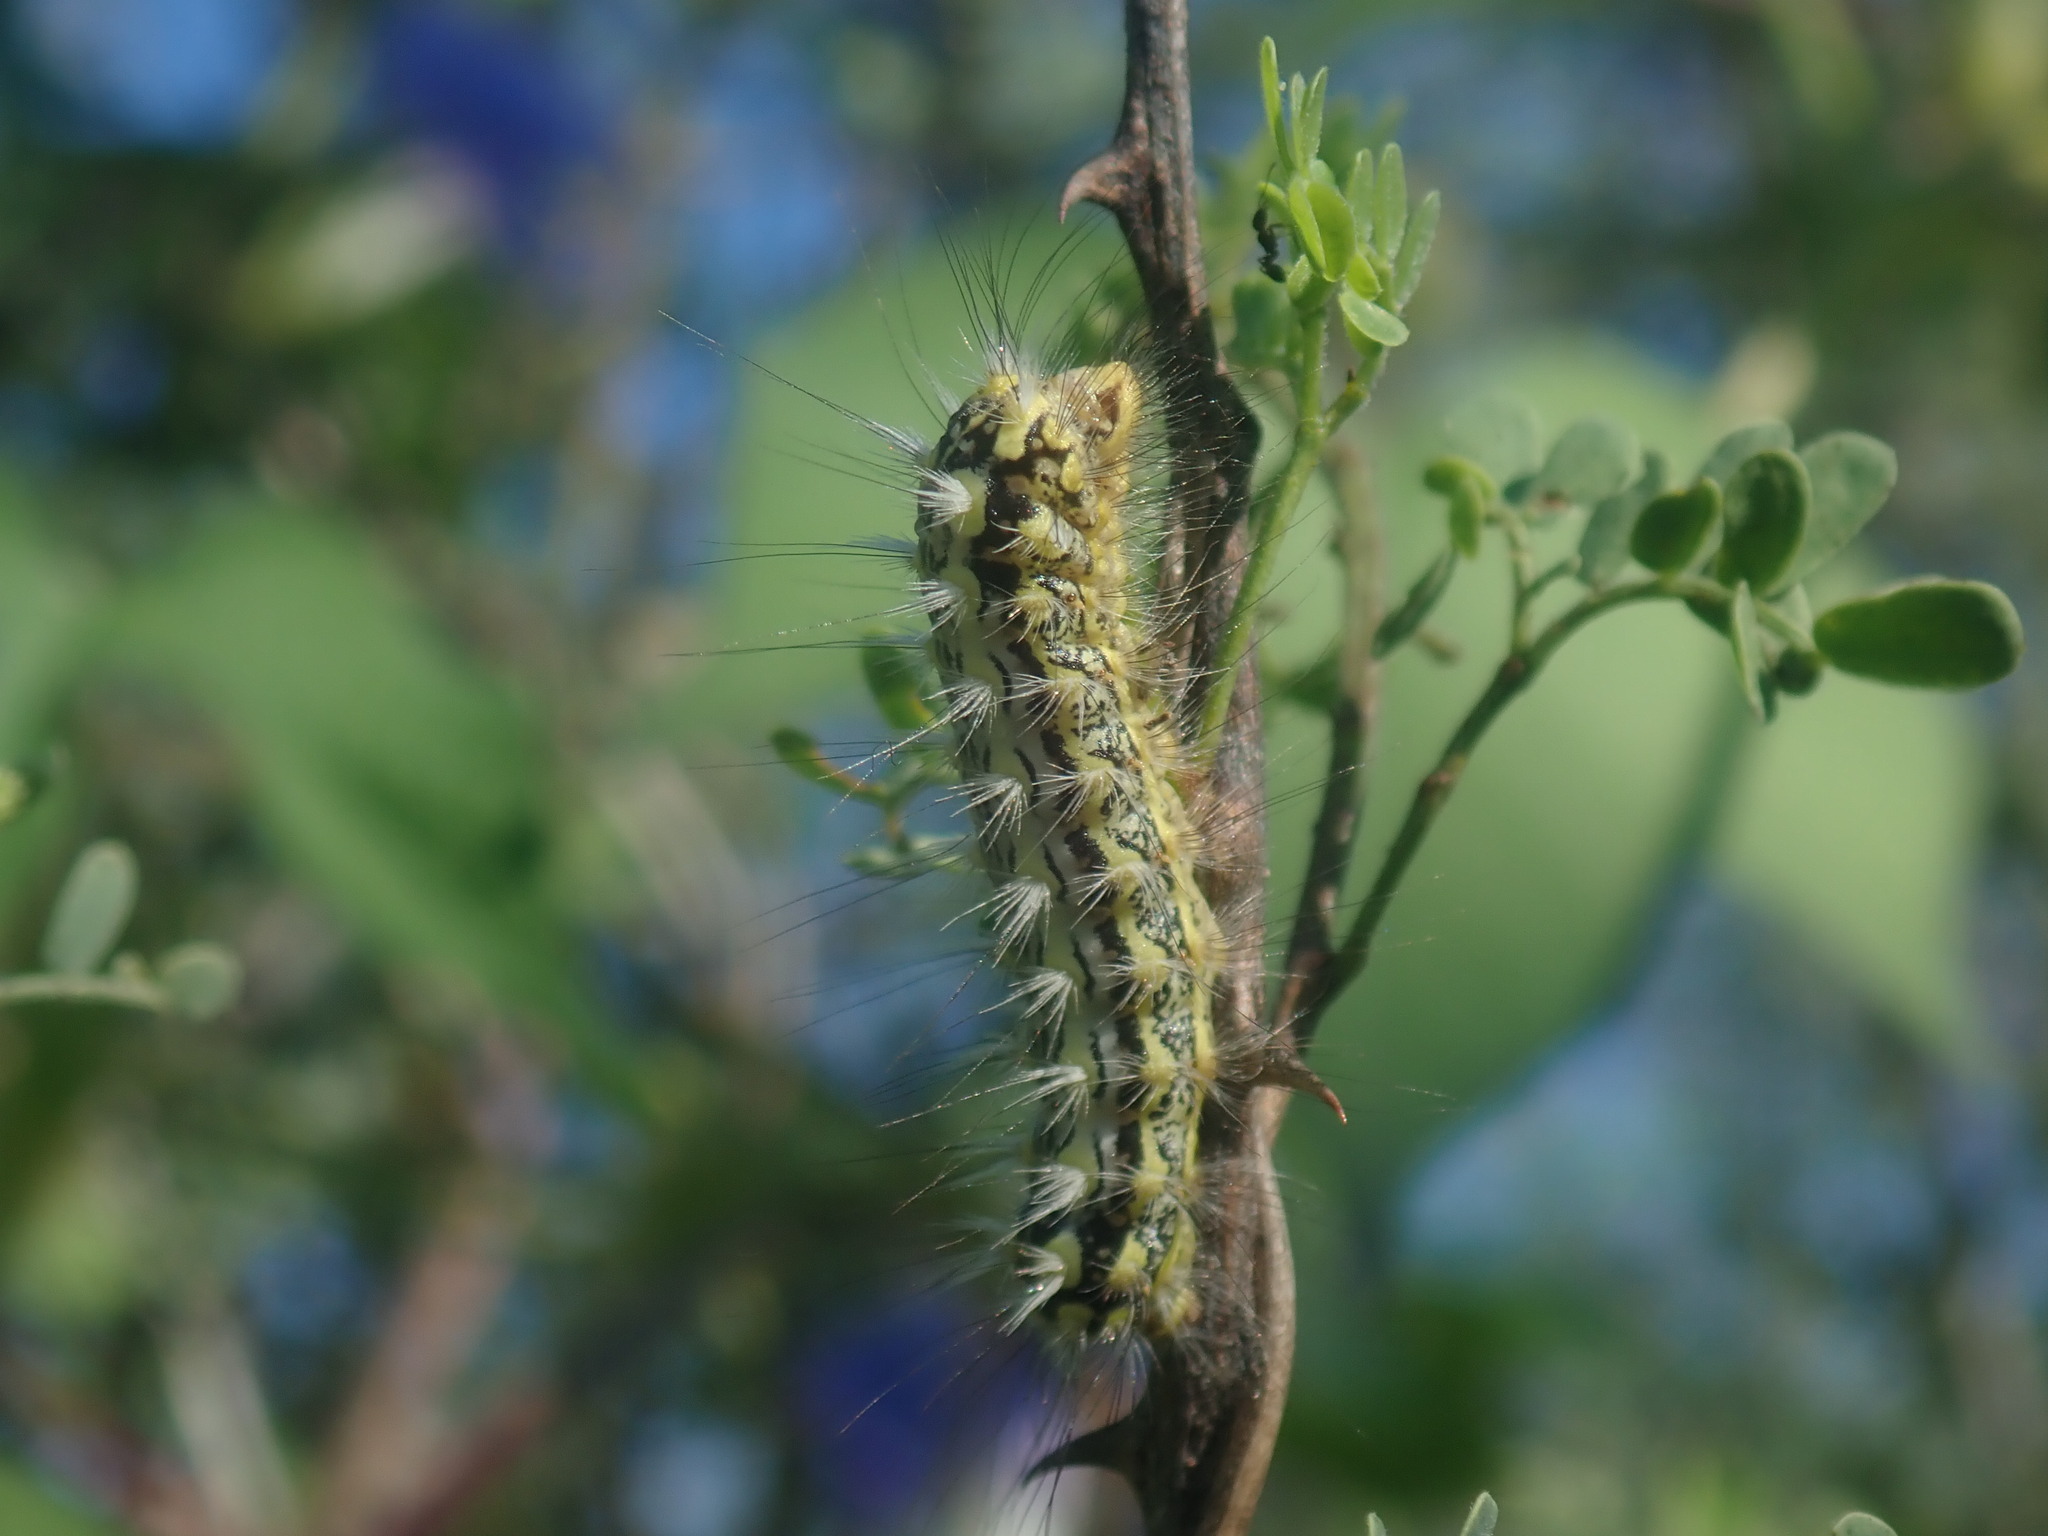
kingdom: Animalia
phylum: Arthropoda
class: Insecta
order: Lepidoptera
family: Megalopygidae
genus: Norape
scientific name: Norape tener
